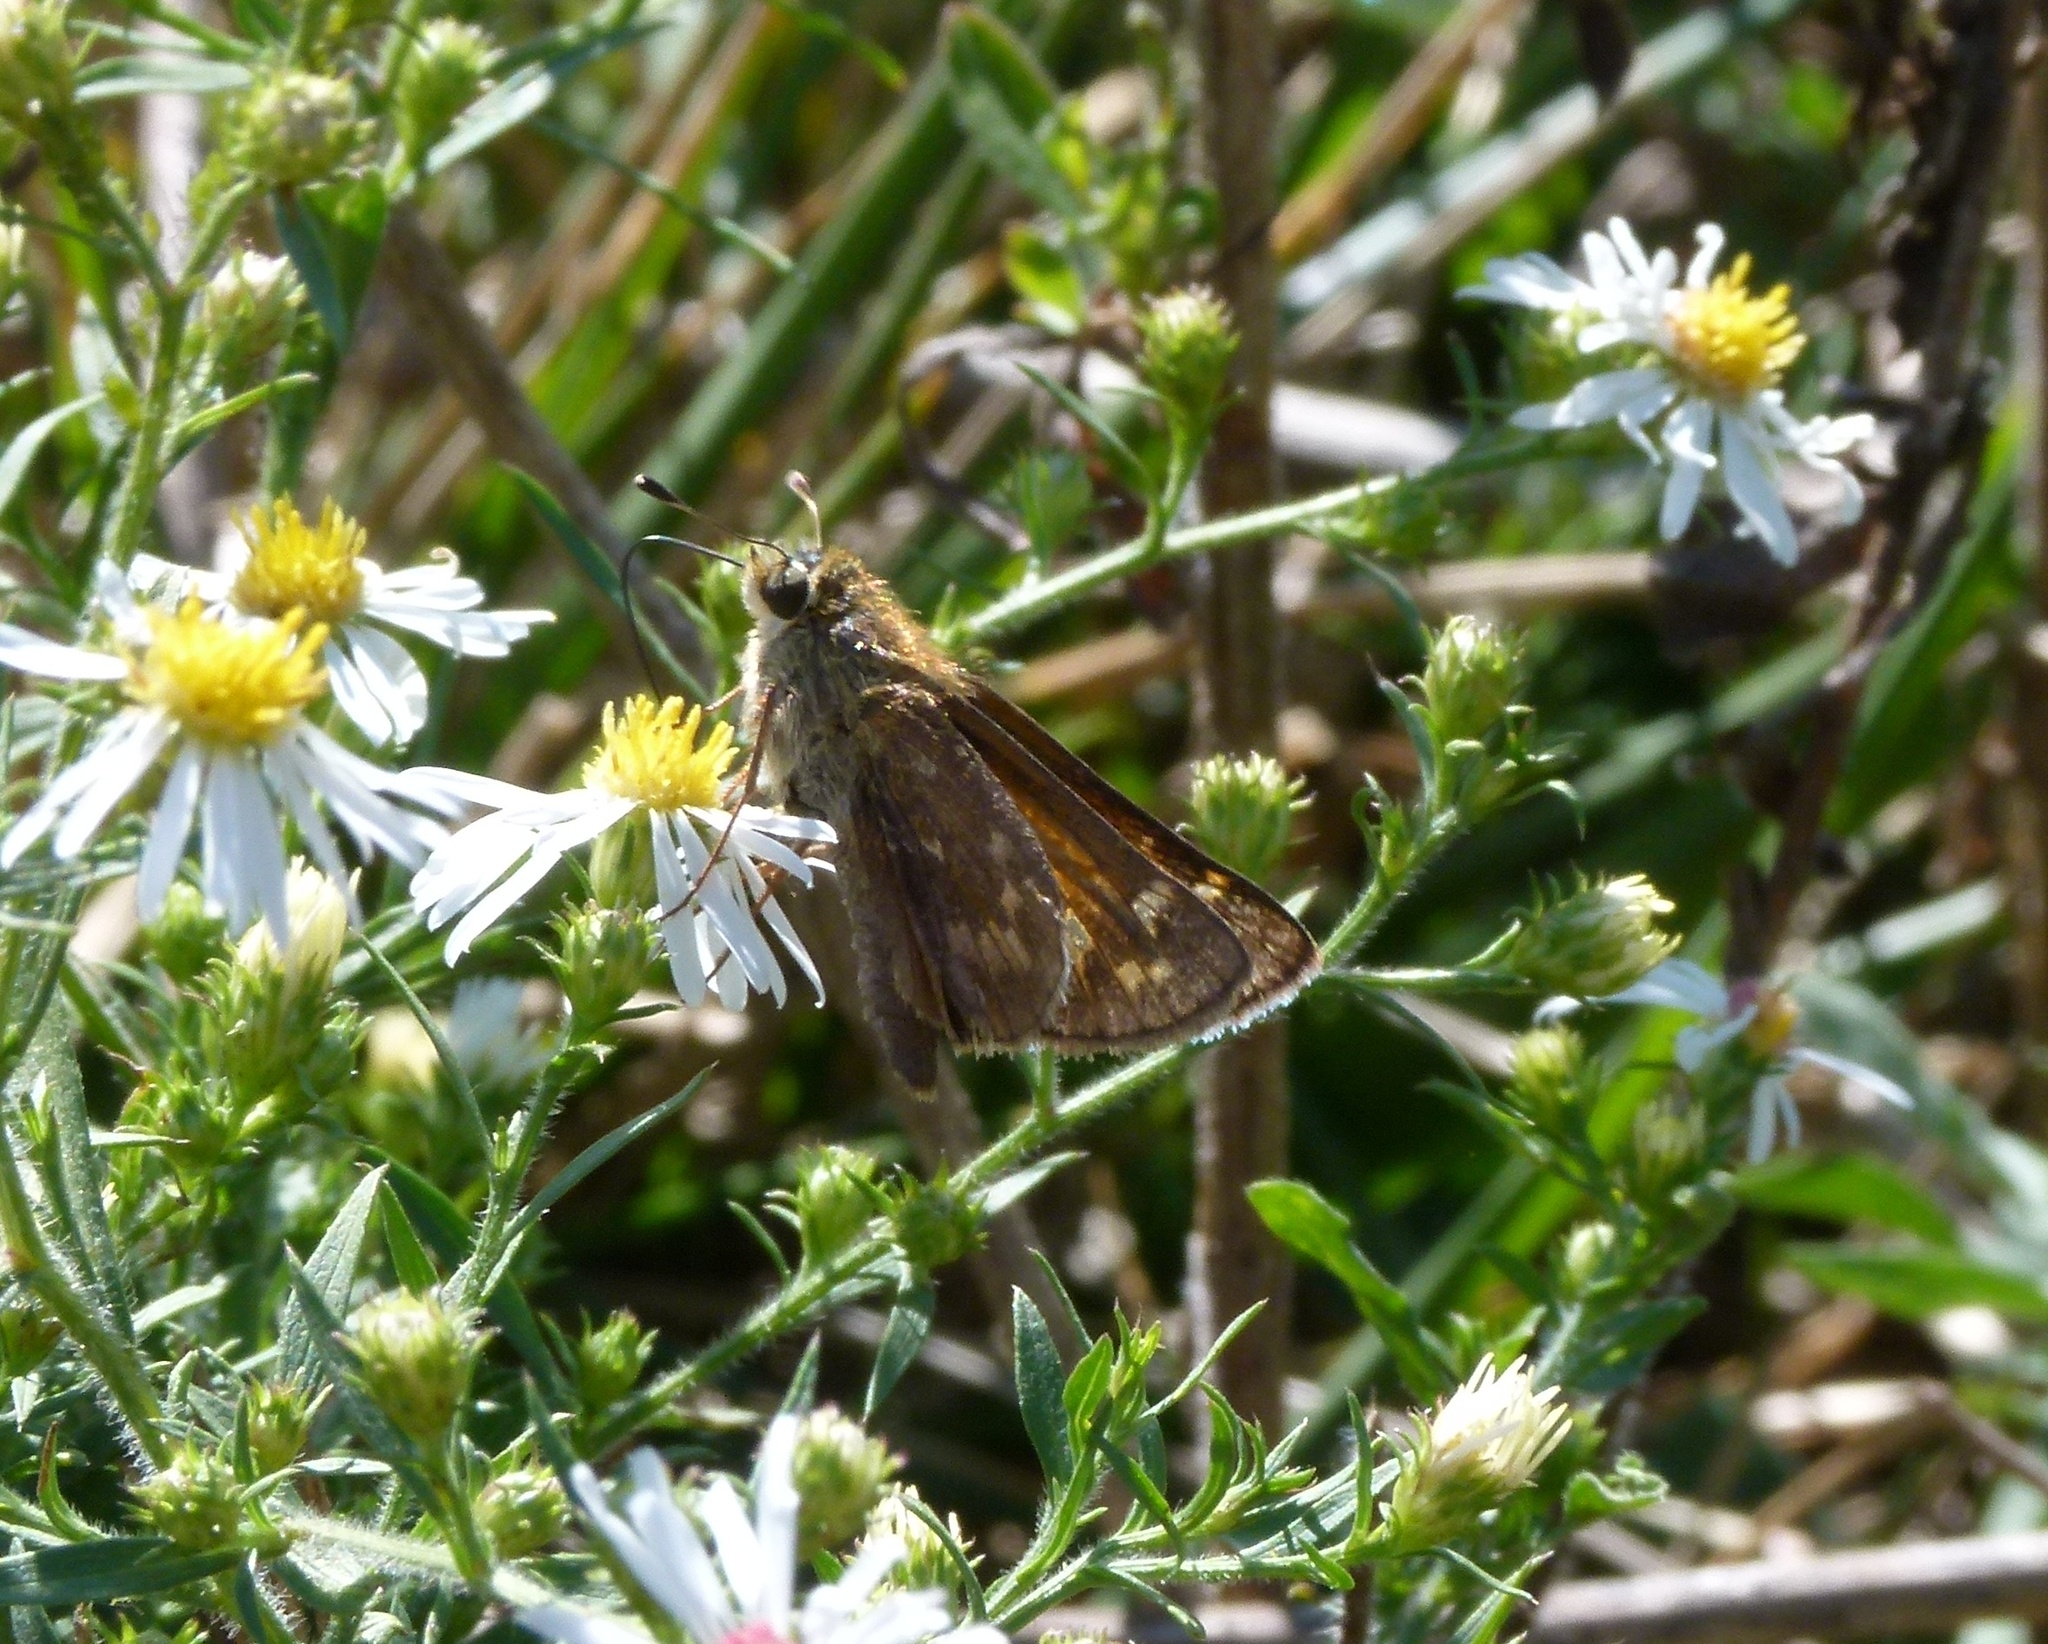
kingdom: Animalia
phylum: Arthropoda
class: Insecta
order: Lepidoptera
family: Hesperiidae
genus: Atalopedes
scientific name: Atalopedes
